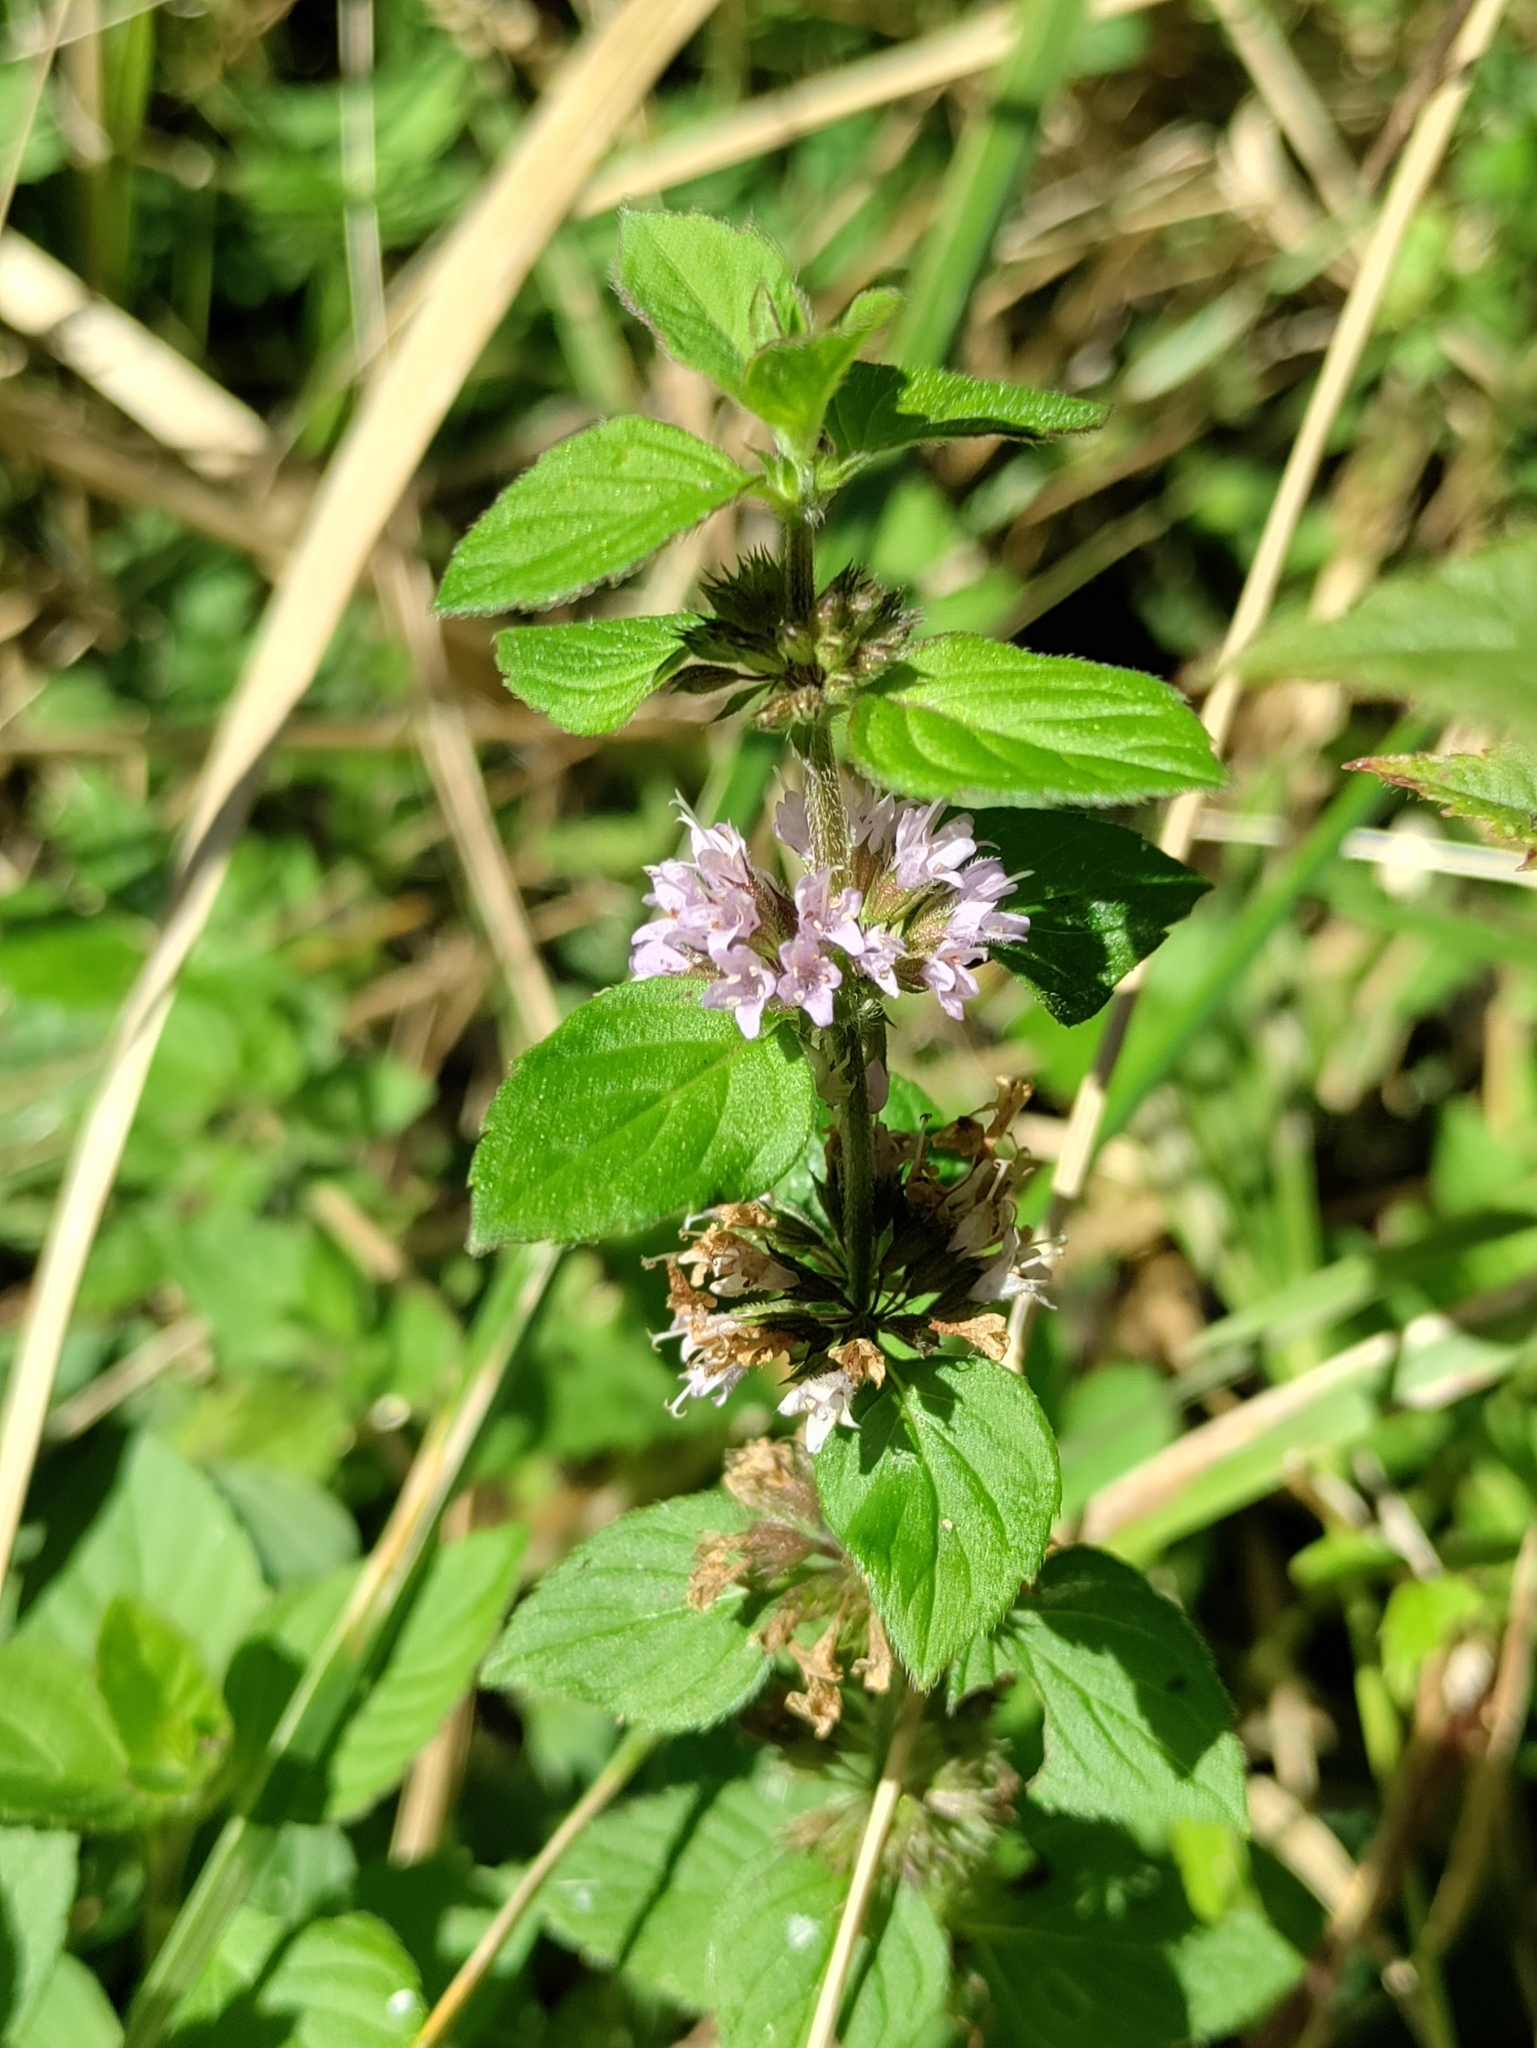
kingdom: Plantae
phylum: Tracheophyta
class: Magnoliopsida
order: Lamiales
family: Lamiaceae
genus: Mentha
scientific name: Mentha arvensis
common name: Corn mint
